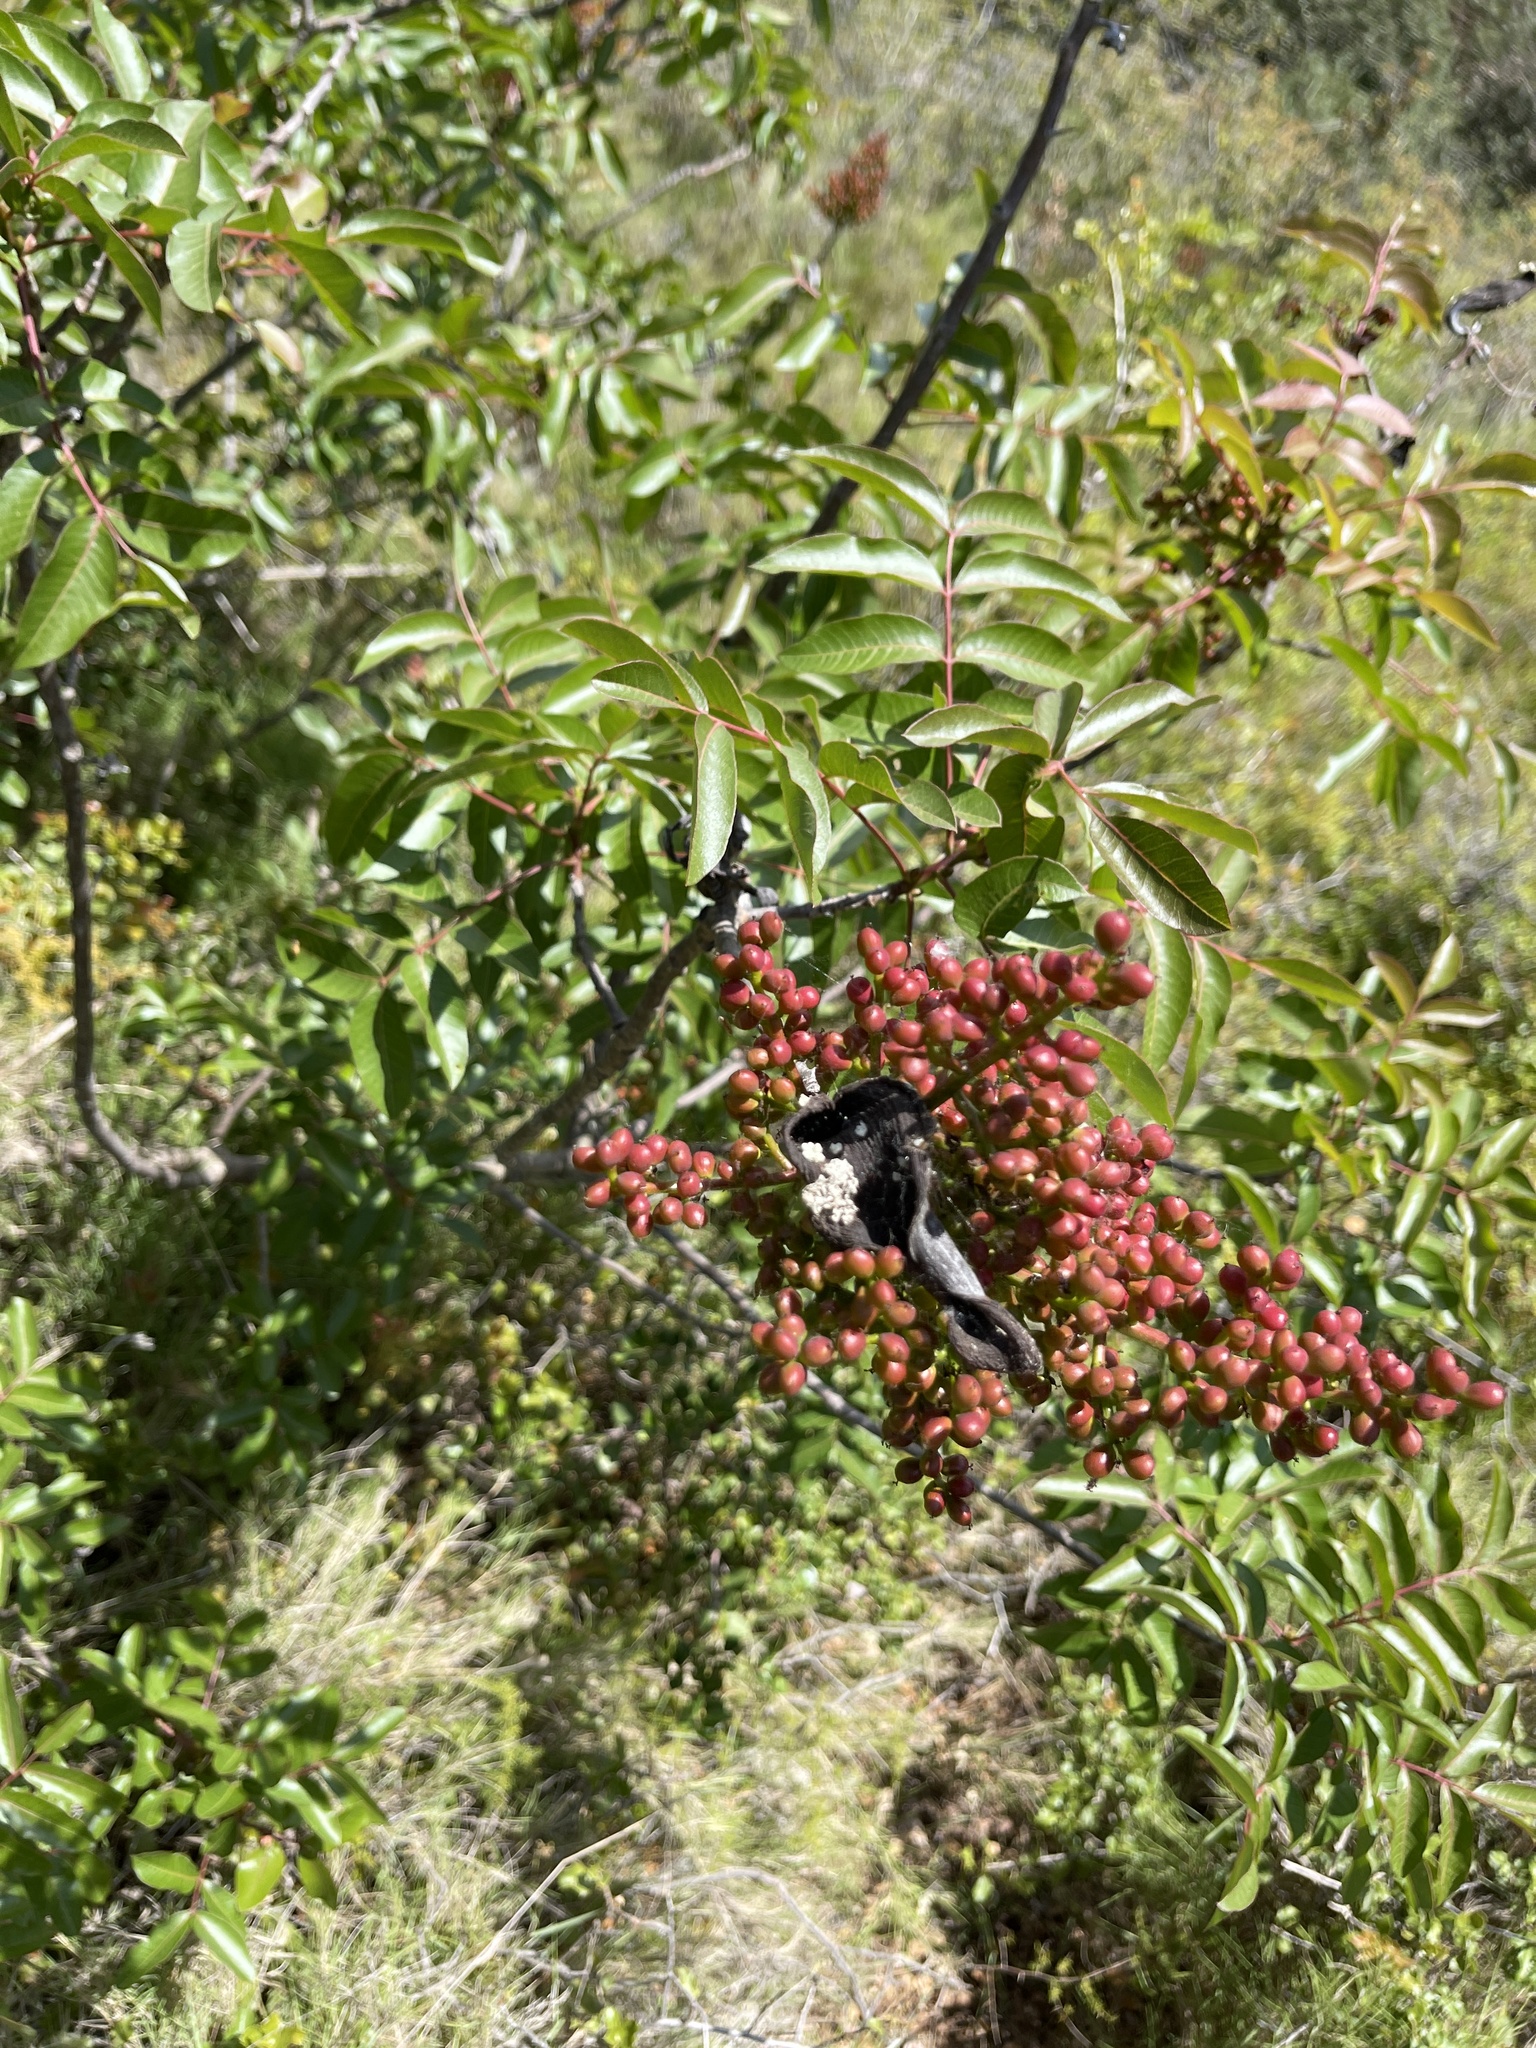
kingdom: Plantae
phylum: Tracheophyta
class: Magnoliopsida
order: Sapindales
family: Anacardiaceae
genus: Pistacia
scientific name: Pistacia terebinthus
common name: Terebinth
